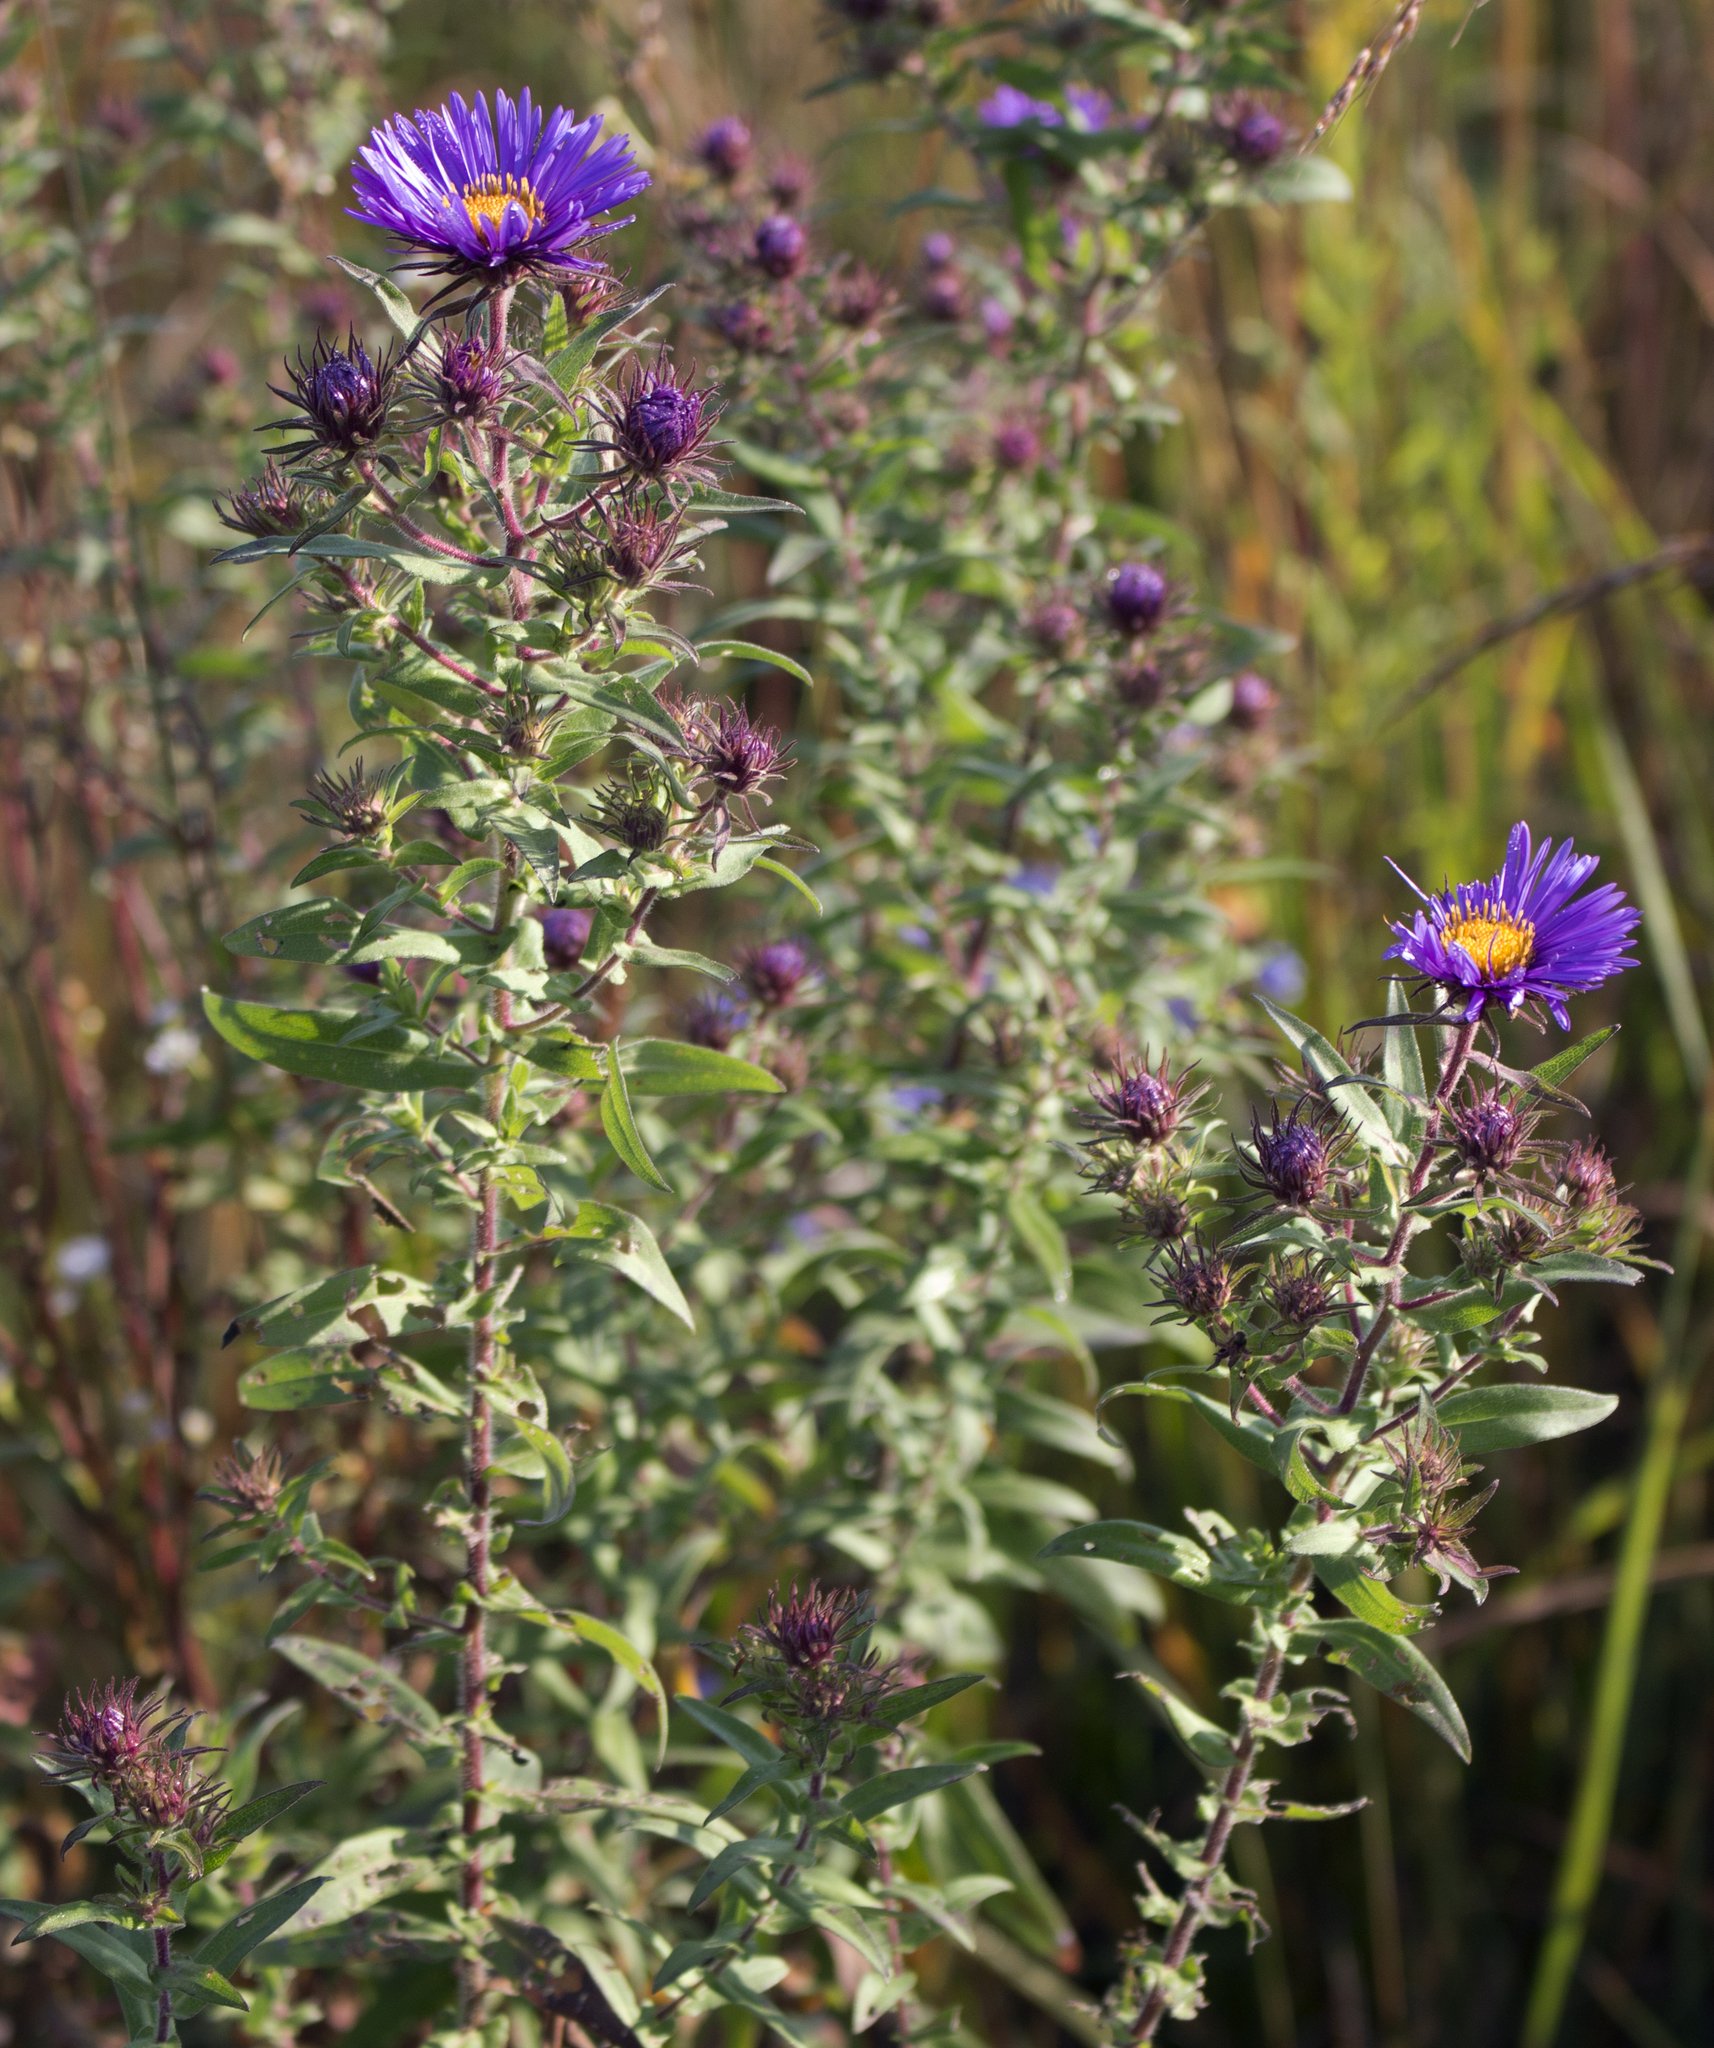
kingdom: Plantae
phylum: Tracheophyta
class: Magnoliopsida
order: Asterales
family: Asteraceae
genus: Symphyotrichum
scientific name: Symphyotrichum novae-angliae
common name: Michaelmas daisy
